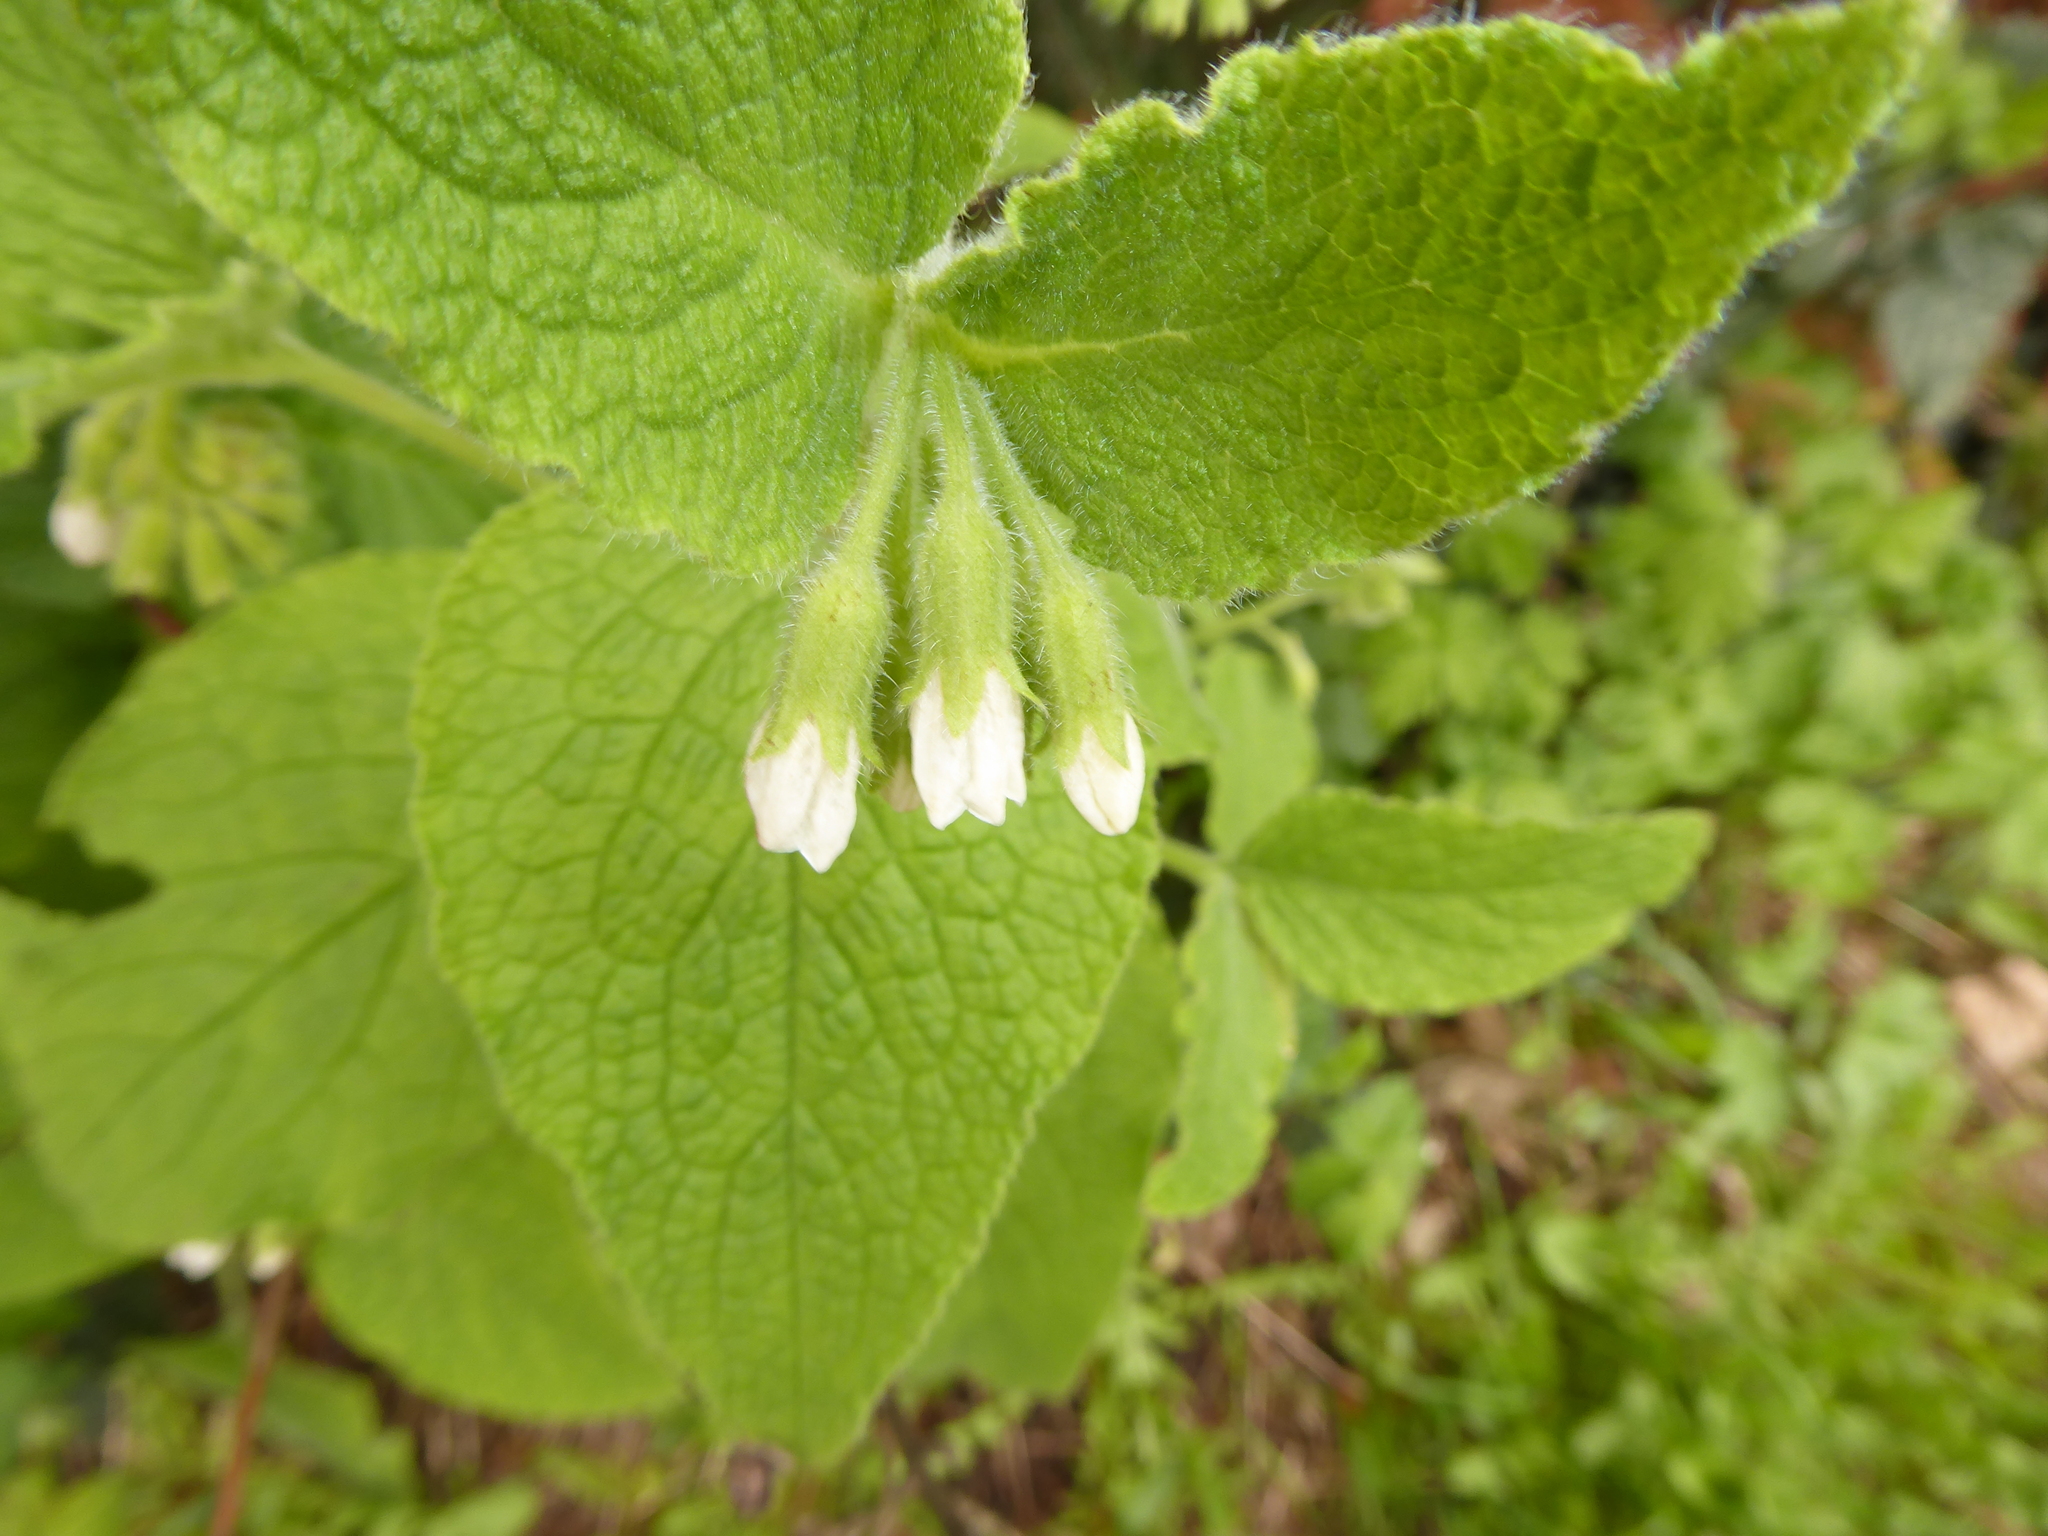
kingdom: Plantae
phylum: Tracheophyta
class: Magnoliopsida
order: Boraginales
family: Boraginaceae
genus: Symphytum
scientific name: Symphytum orientale
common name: White comfrey
